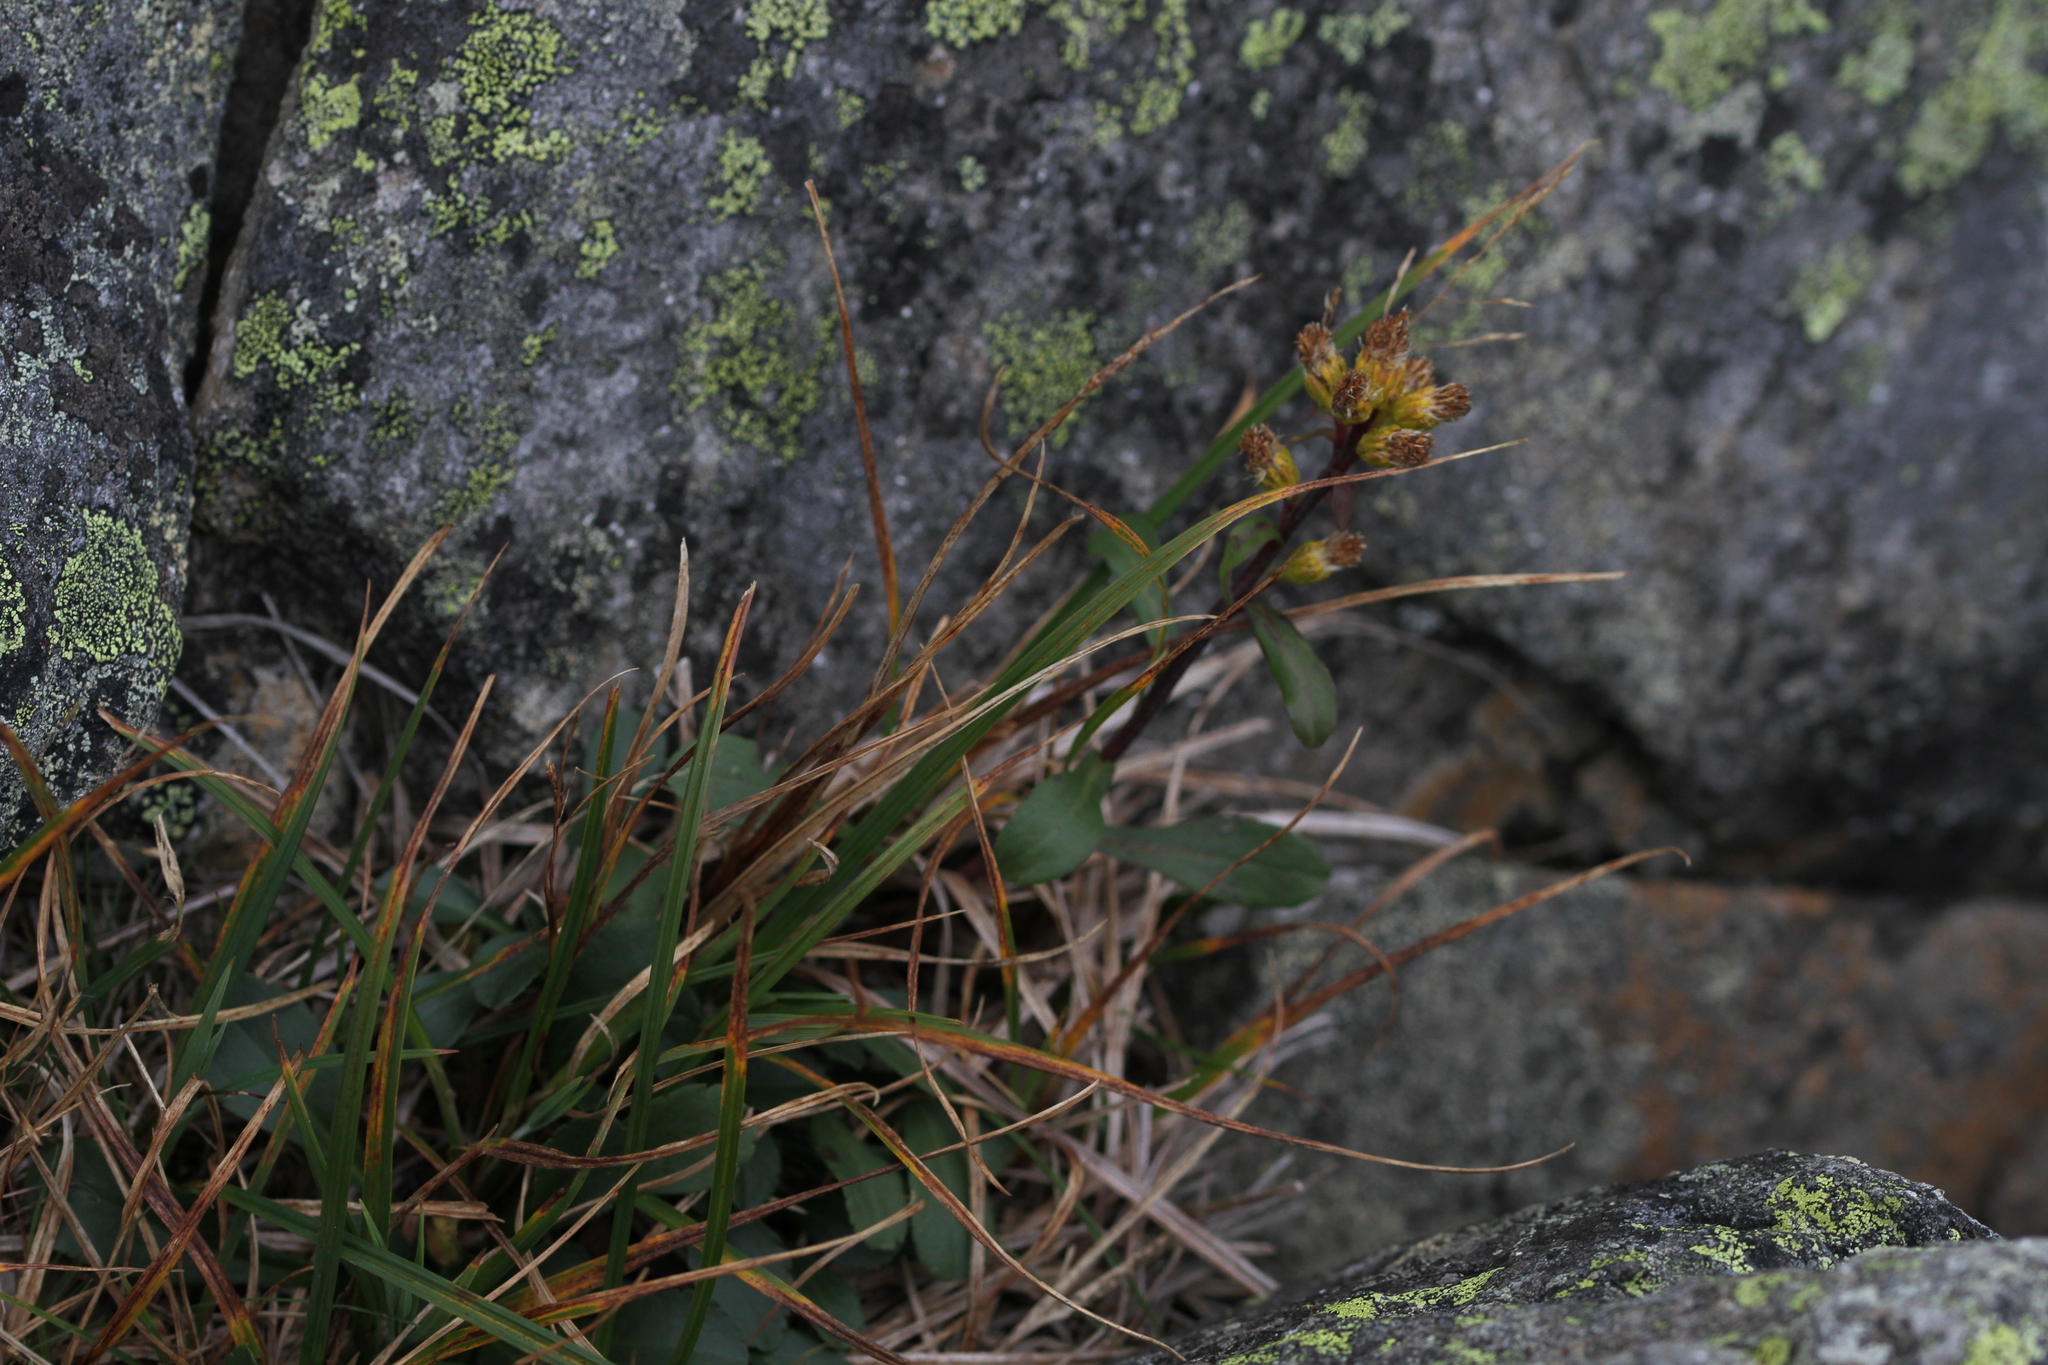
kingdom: Plantae
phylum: Tracheophyta
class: Magnoliopsida
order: Asterales
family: Asteraceae
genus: Solidago
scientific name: Solidago leiocarpa
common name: Cutler's alpine goldenrod
